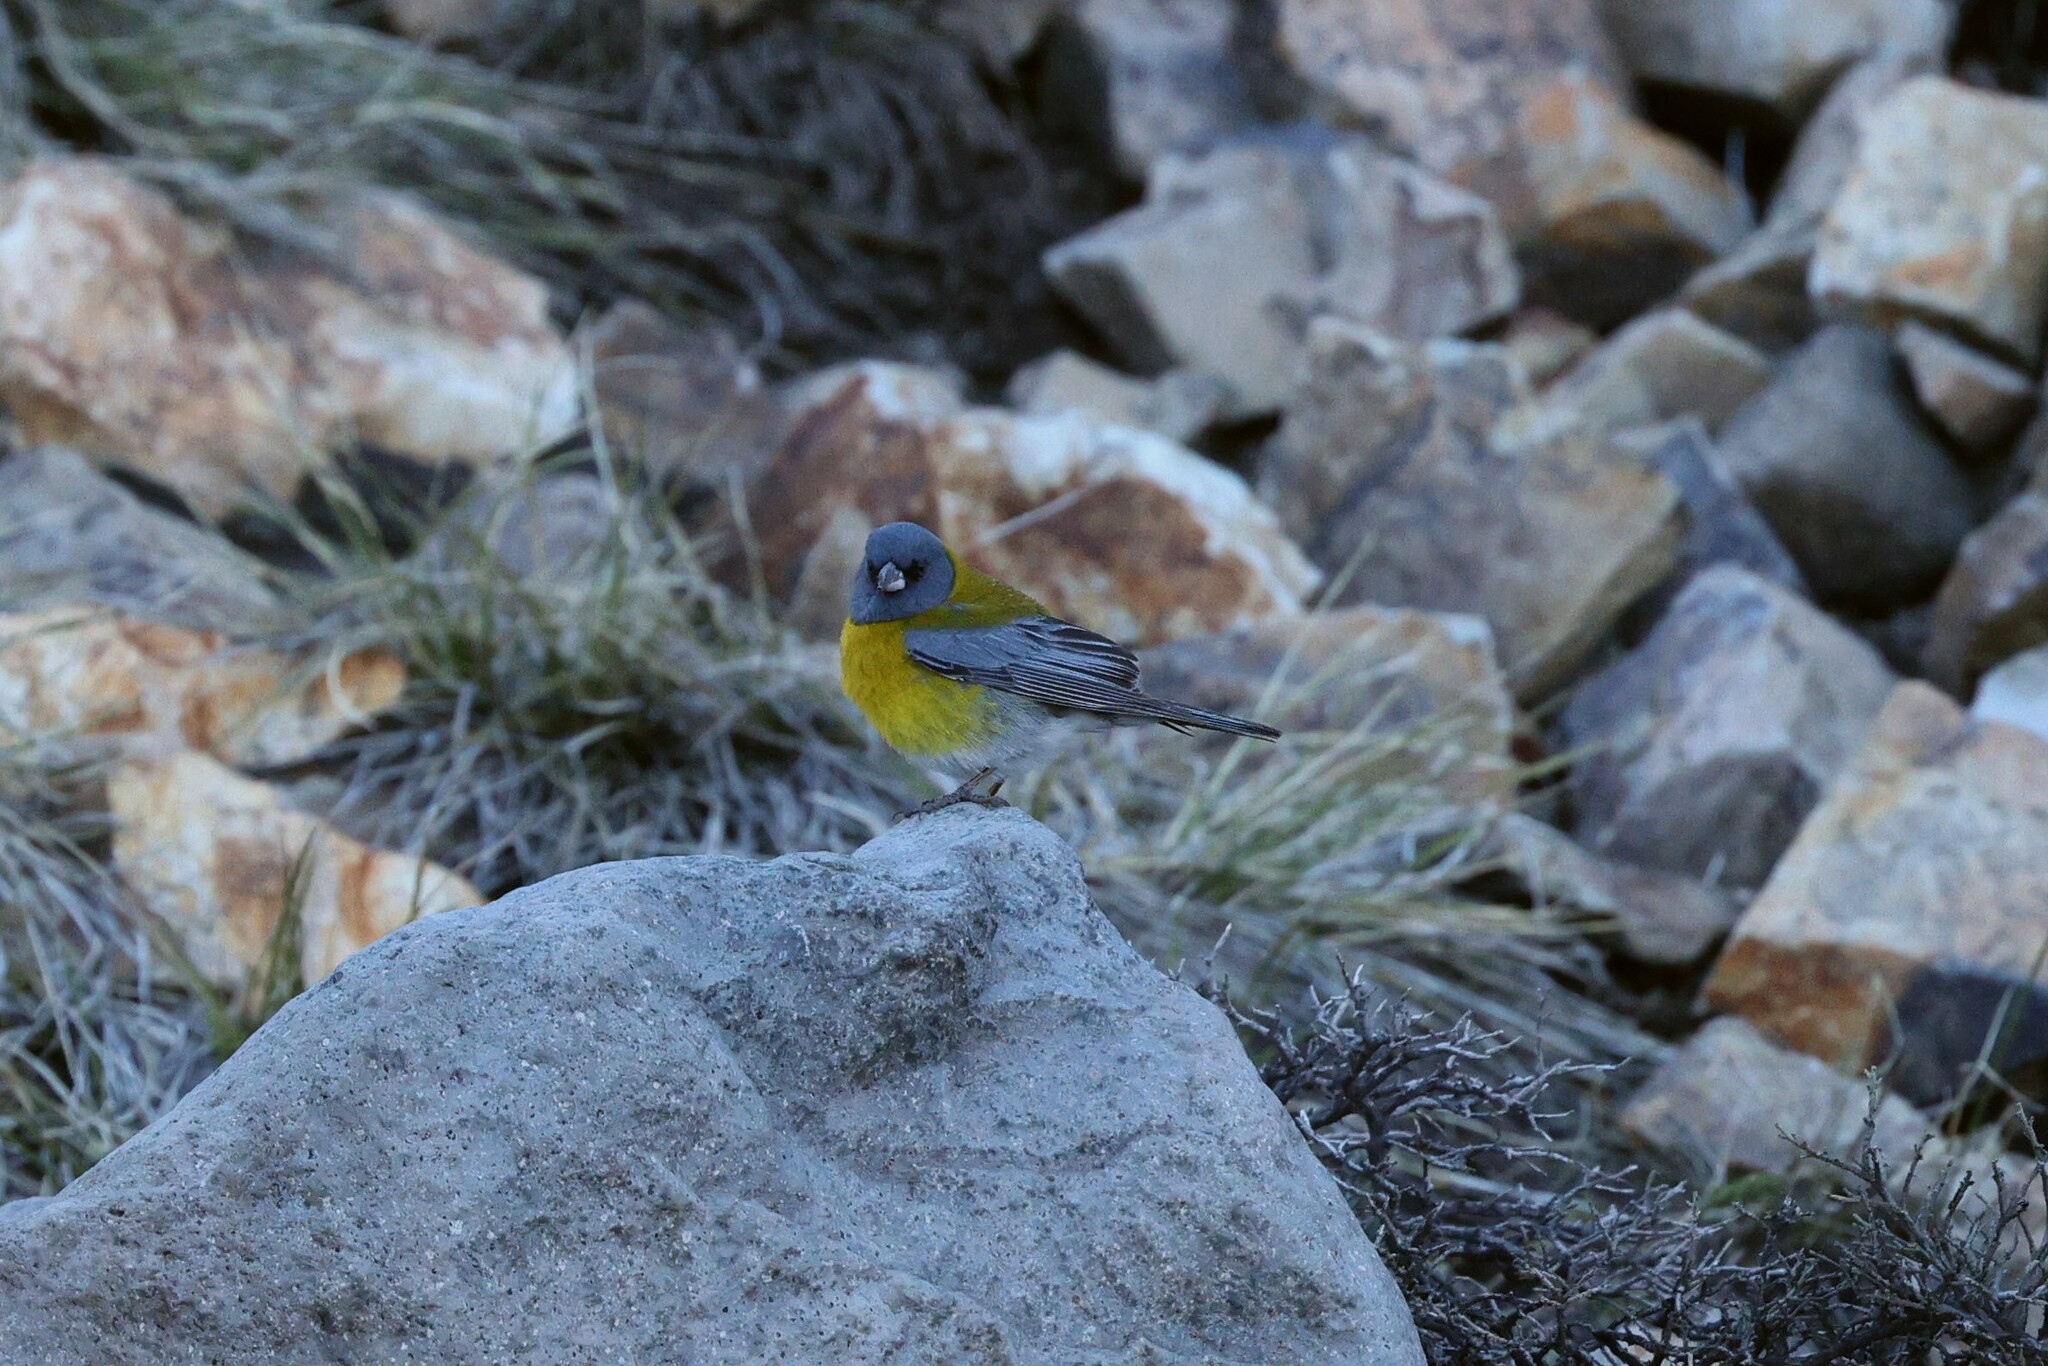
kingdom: Animalia
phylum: Chordata
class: Aves
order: Passeriformes
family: Thraupidae
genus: Phrygilus
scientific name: Phrygilus gayi
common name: Grey-hooded sierra finch
